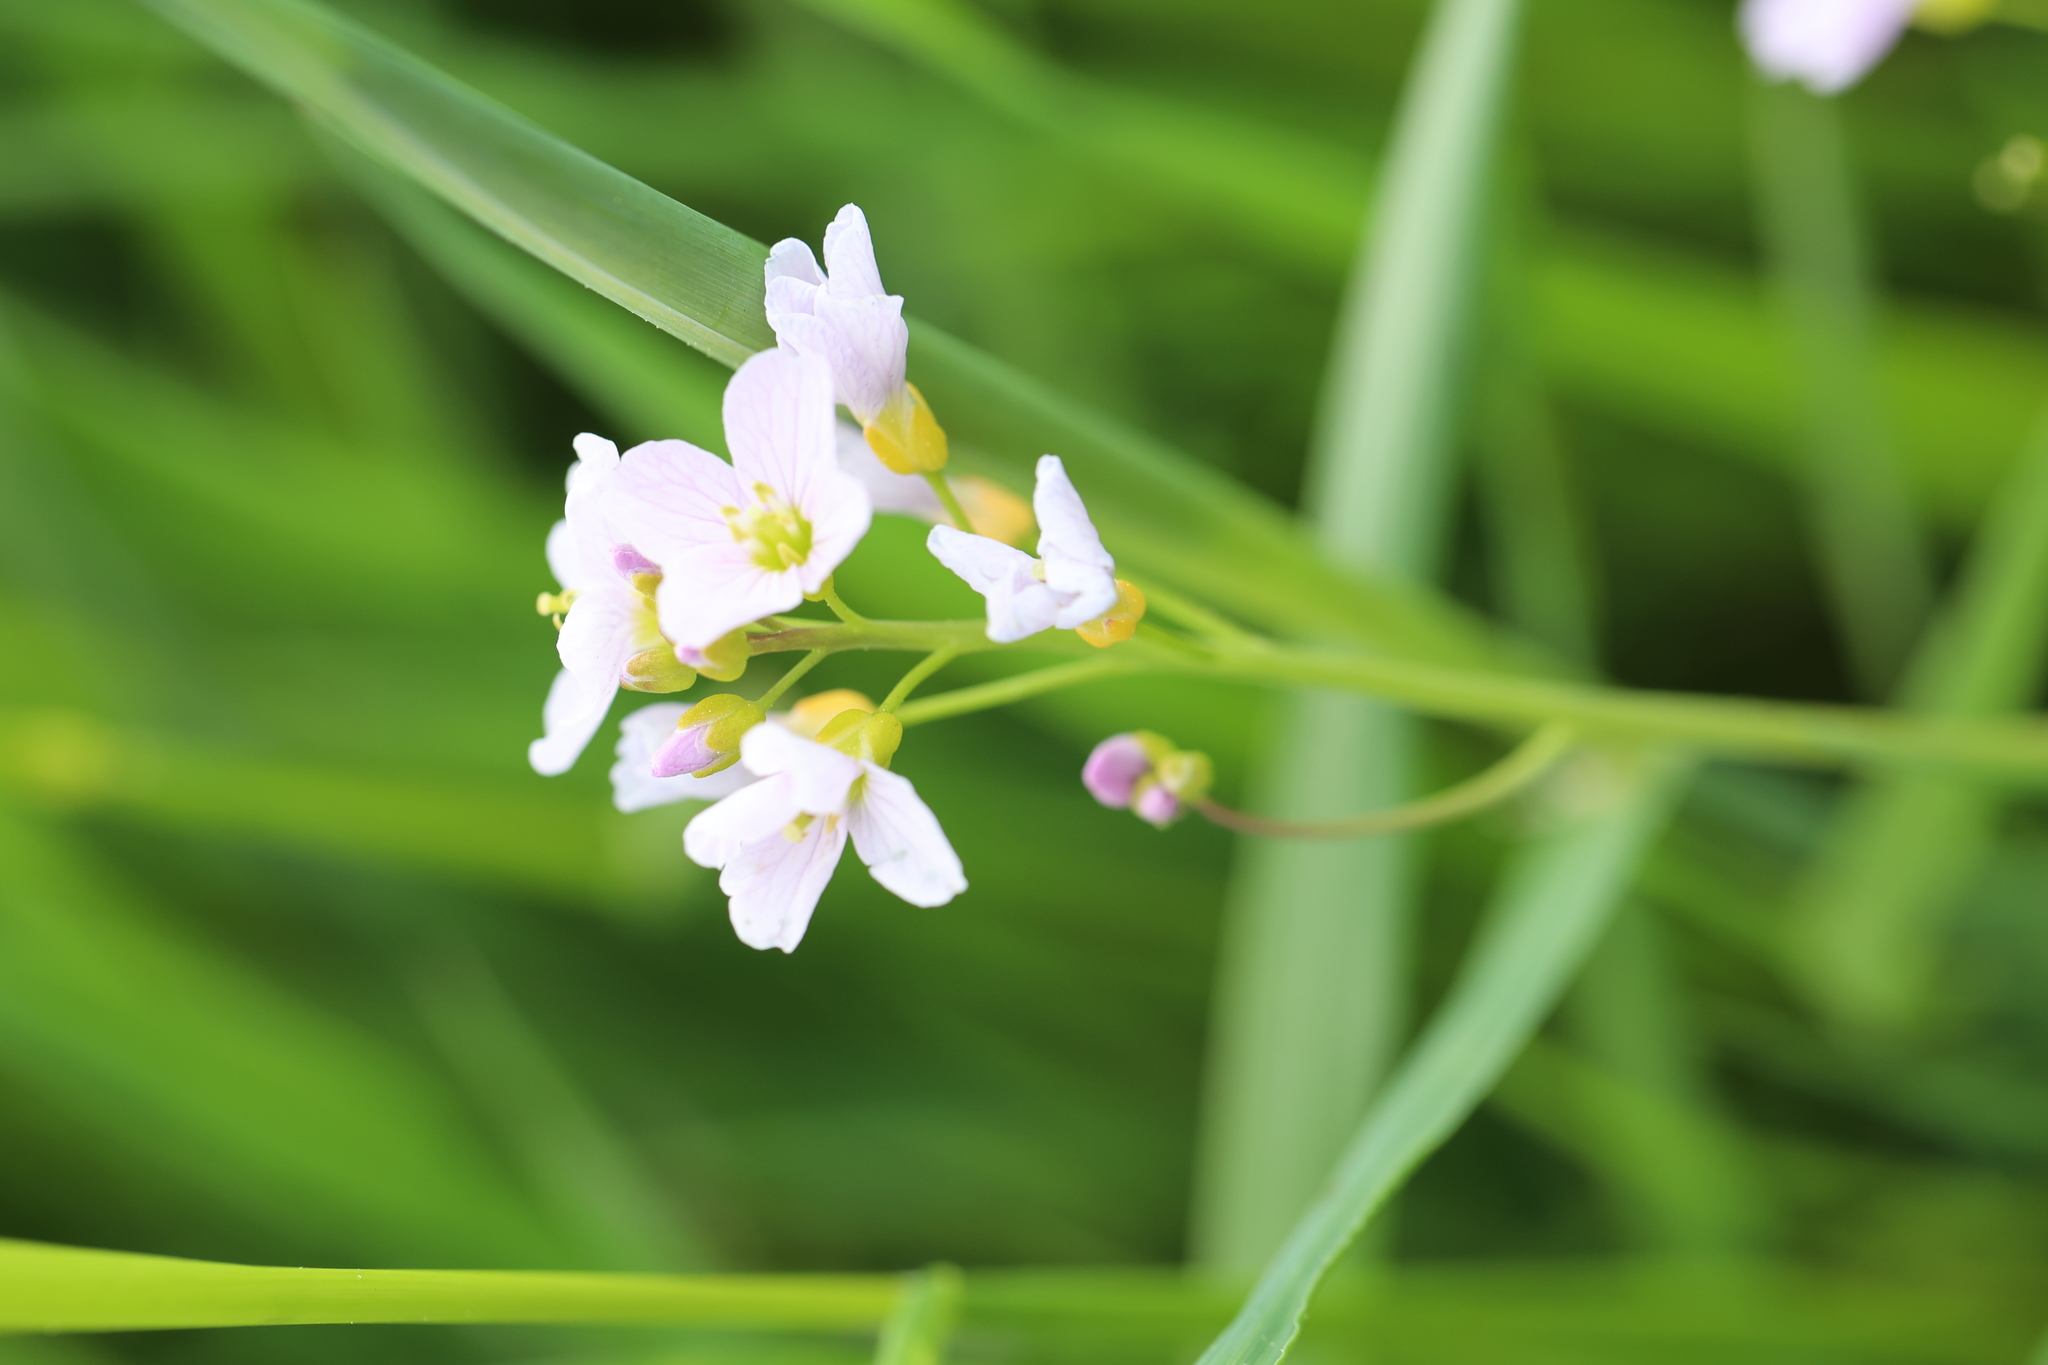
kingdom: Plantae
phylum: Tracheophyta
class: Magnoliopsida
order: Brassicales
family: Brassicaceae
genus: Cardamine
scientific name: Cardamine pratensis
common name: Cuckoo flower
